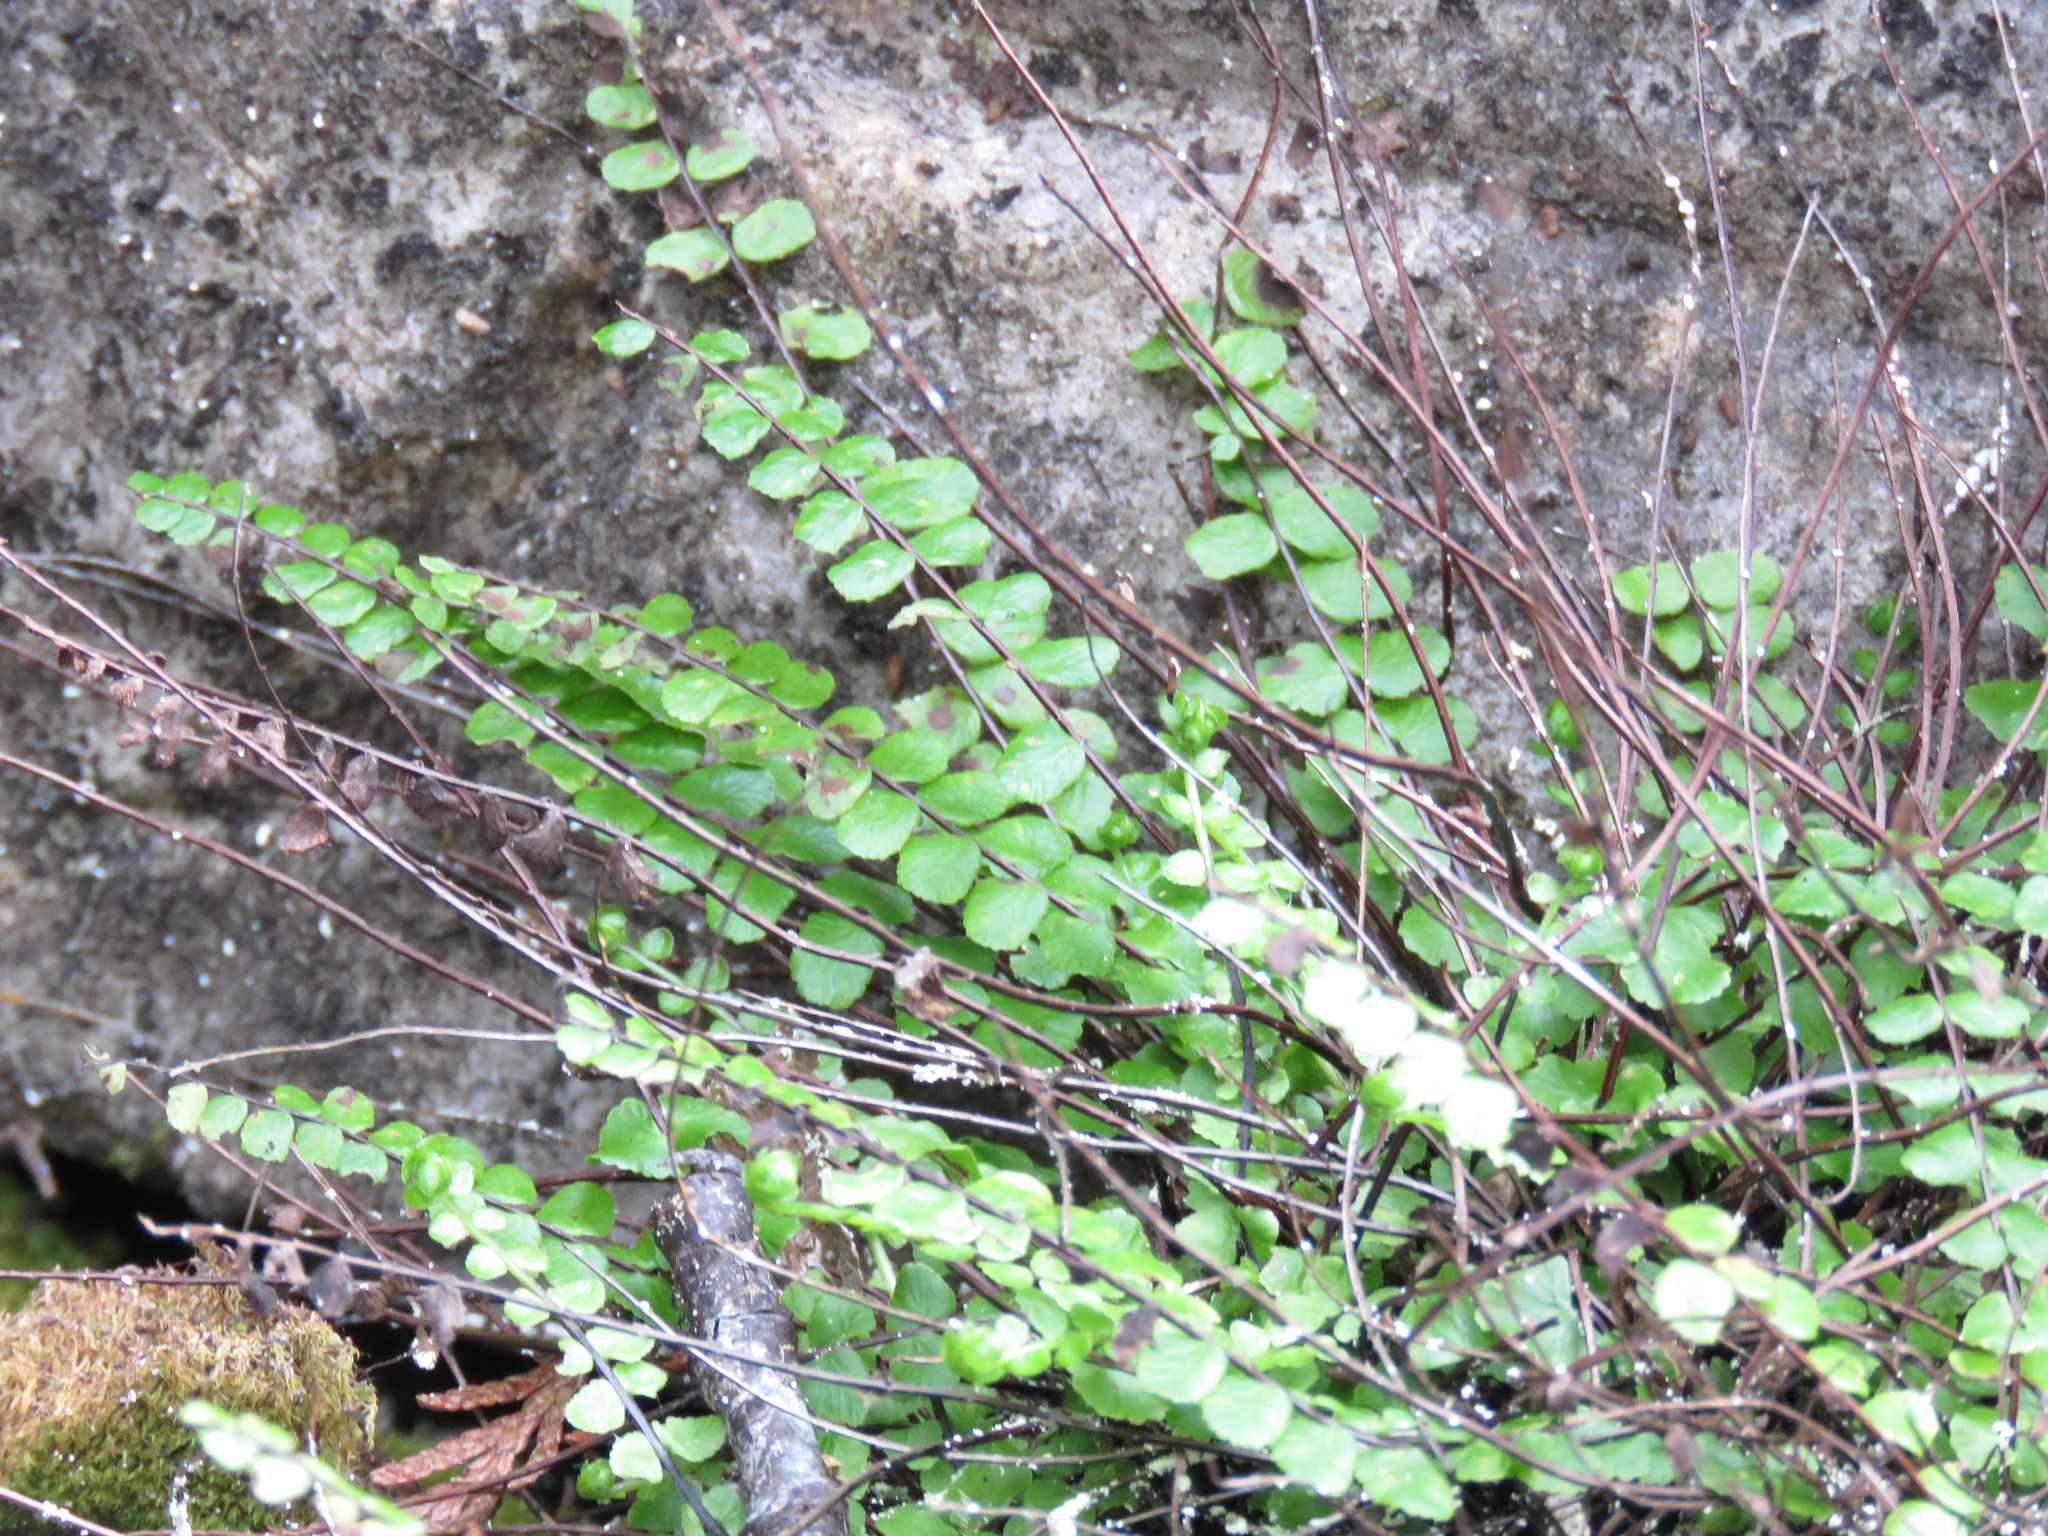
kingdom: Plantae
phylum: Tracheophyta
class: Polypodiopsida
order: Polypodiales
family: Aspleniaceae
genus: Asplenium
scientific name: Asplenium trichomanes
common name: Maidenhair spleenwort
